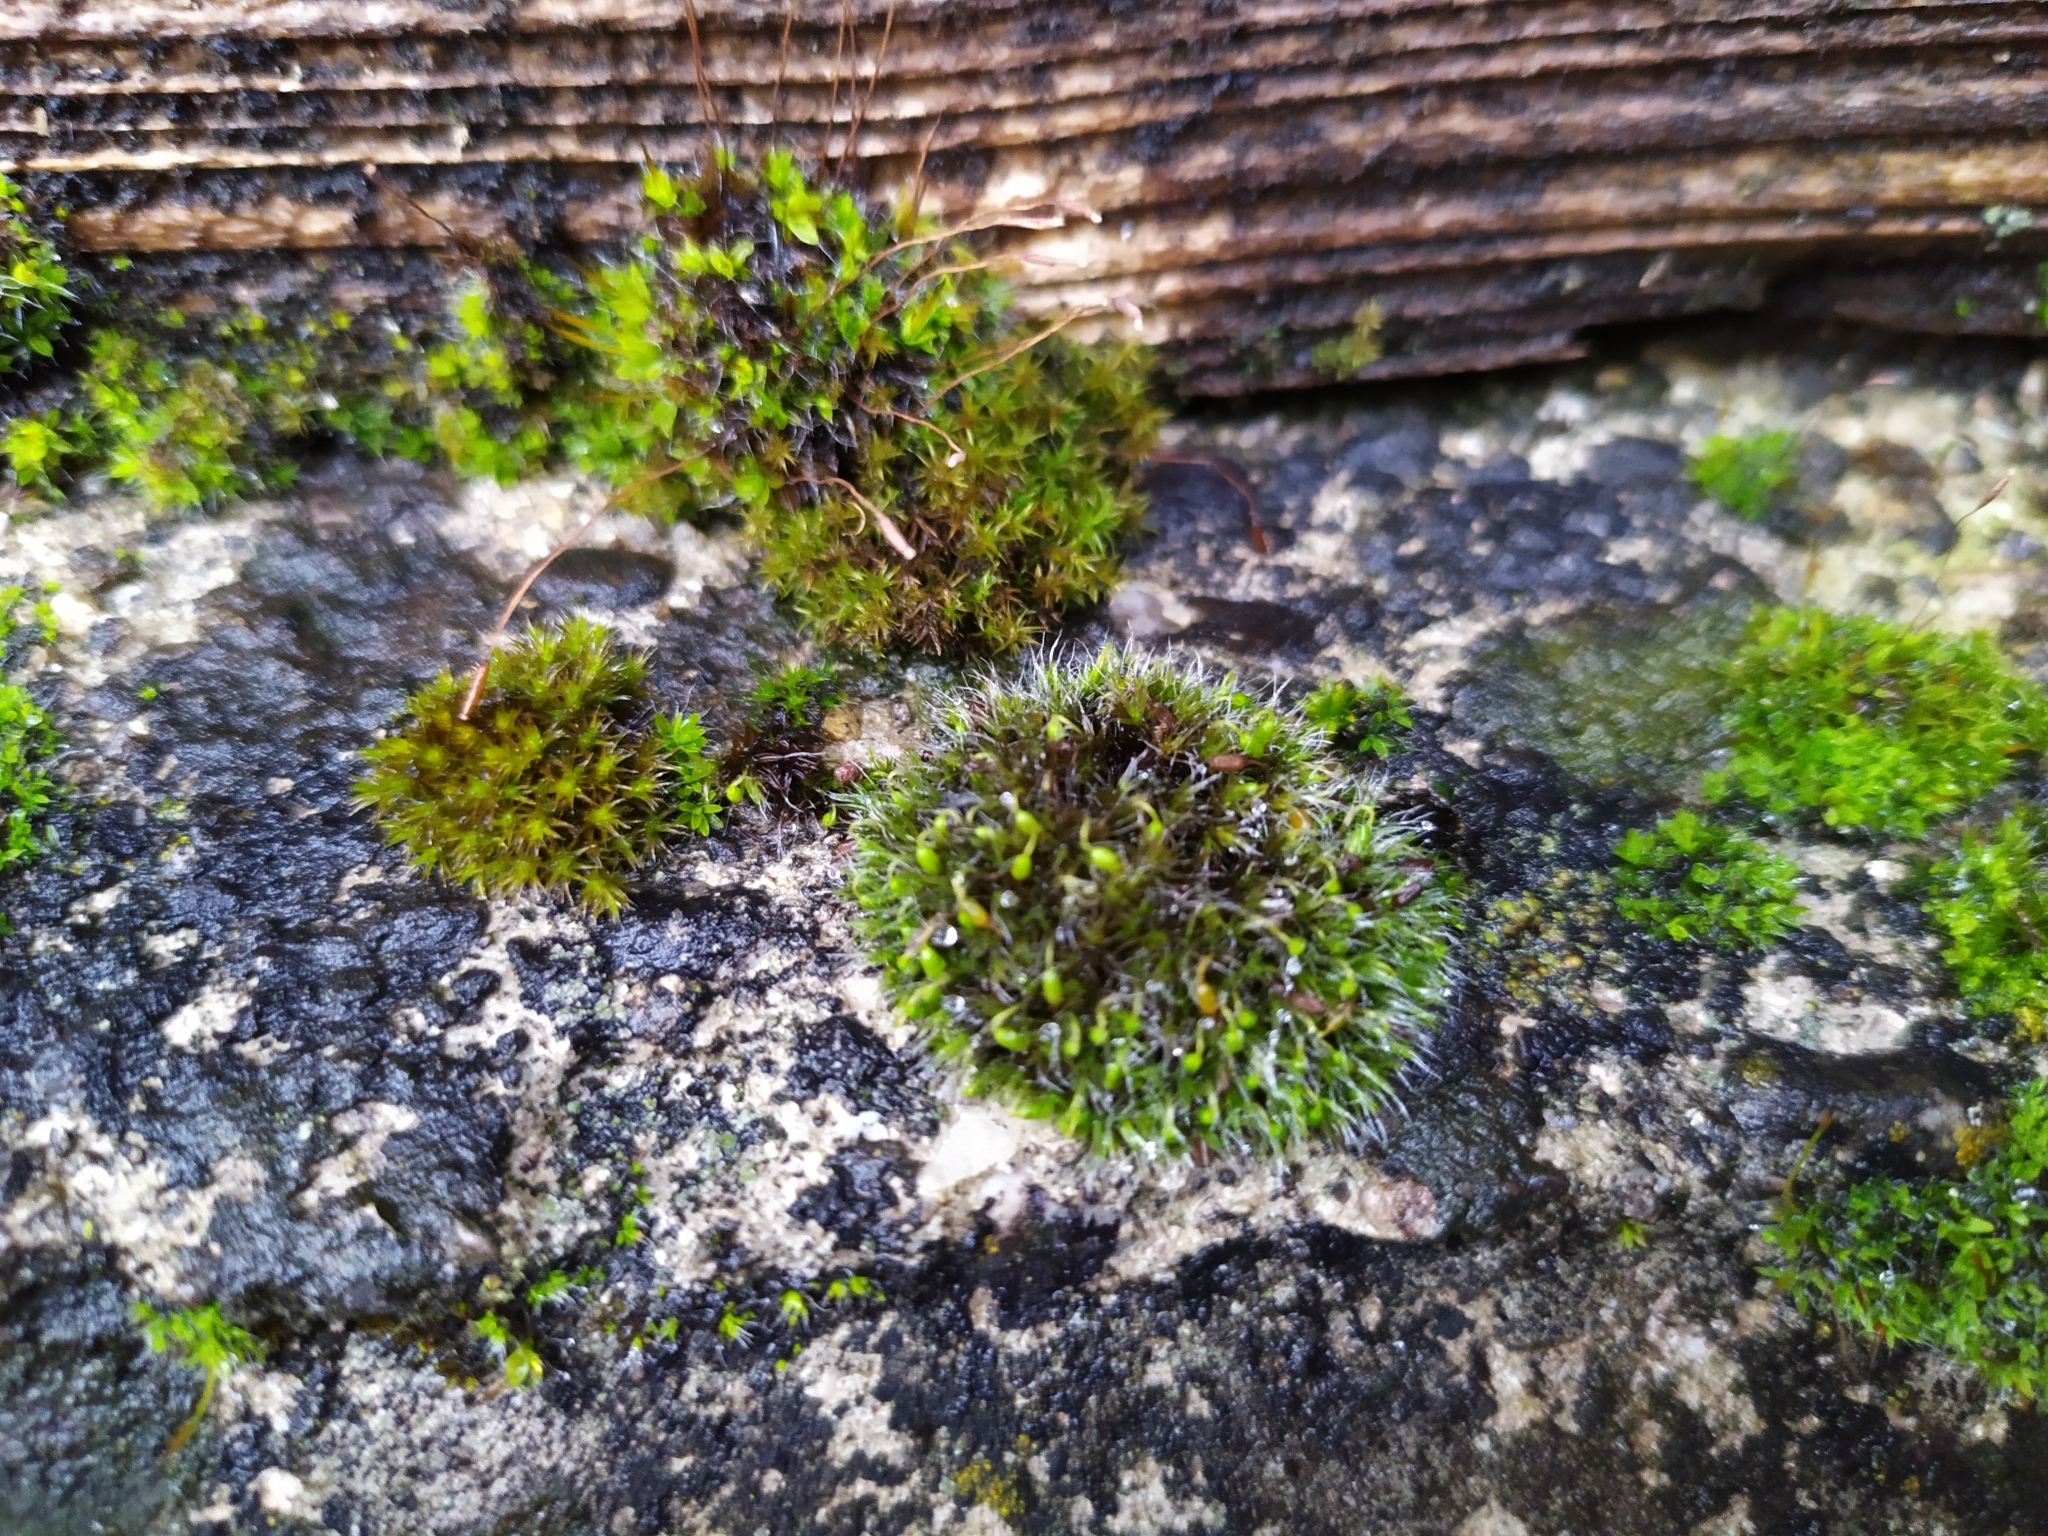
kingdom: Plantae
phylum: Bryophyta
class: Bryopsida
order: Grimmiales
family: Grimmiaceae
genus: Grimmia
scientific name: Grimmia pulvinata
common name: Grey-cushioned grimmia
